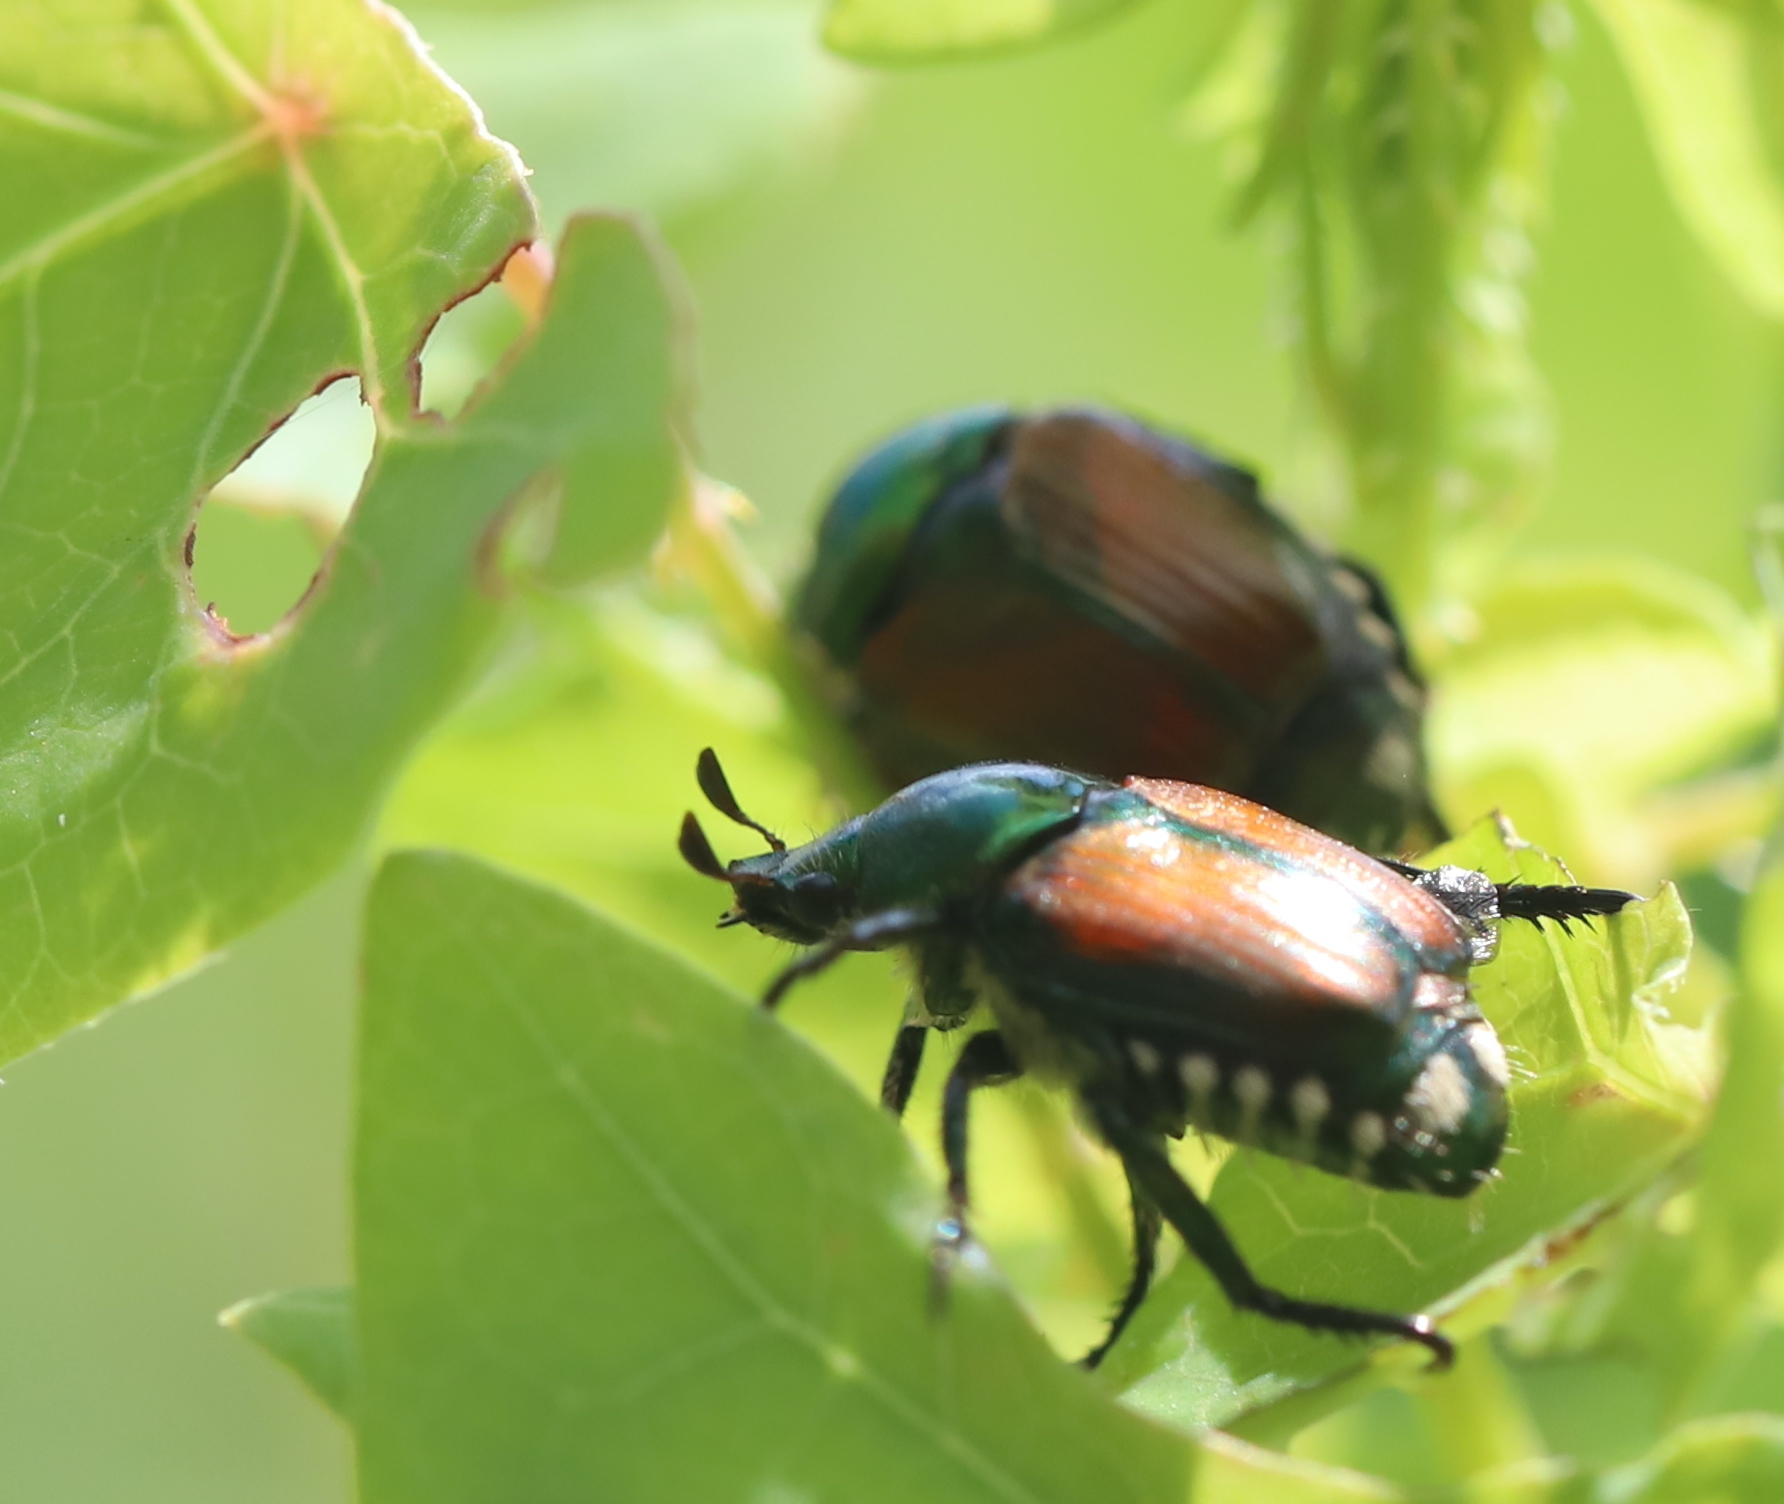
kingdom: Animalia
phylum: Arthropoda
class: Insecta
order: Coleoptera
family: Scarabaeidae
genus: Popillia
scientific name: Popillia japonica
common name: Japanese beetle
